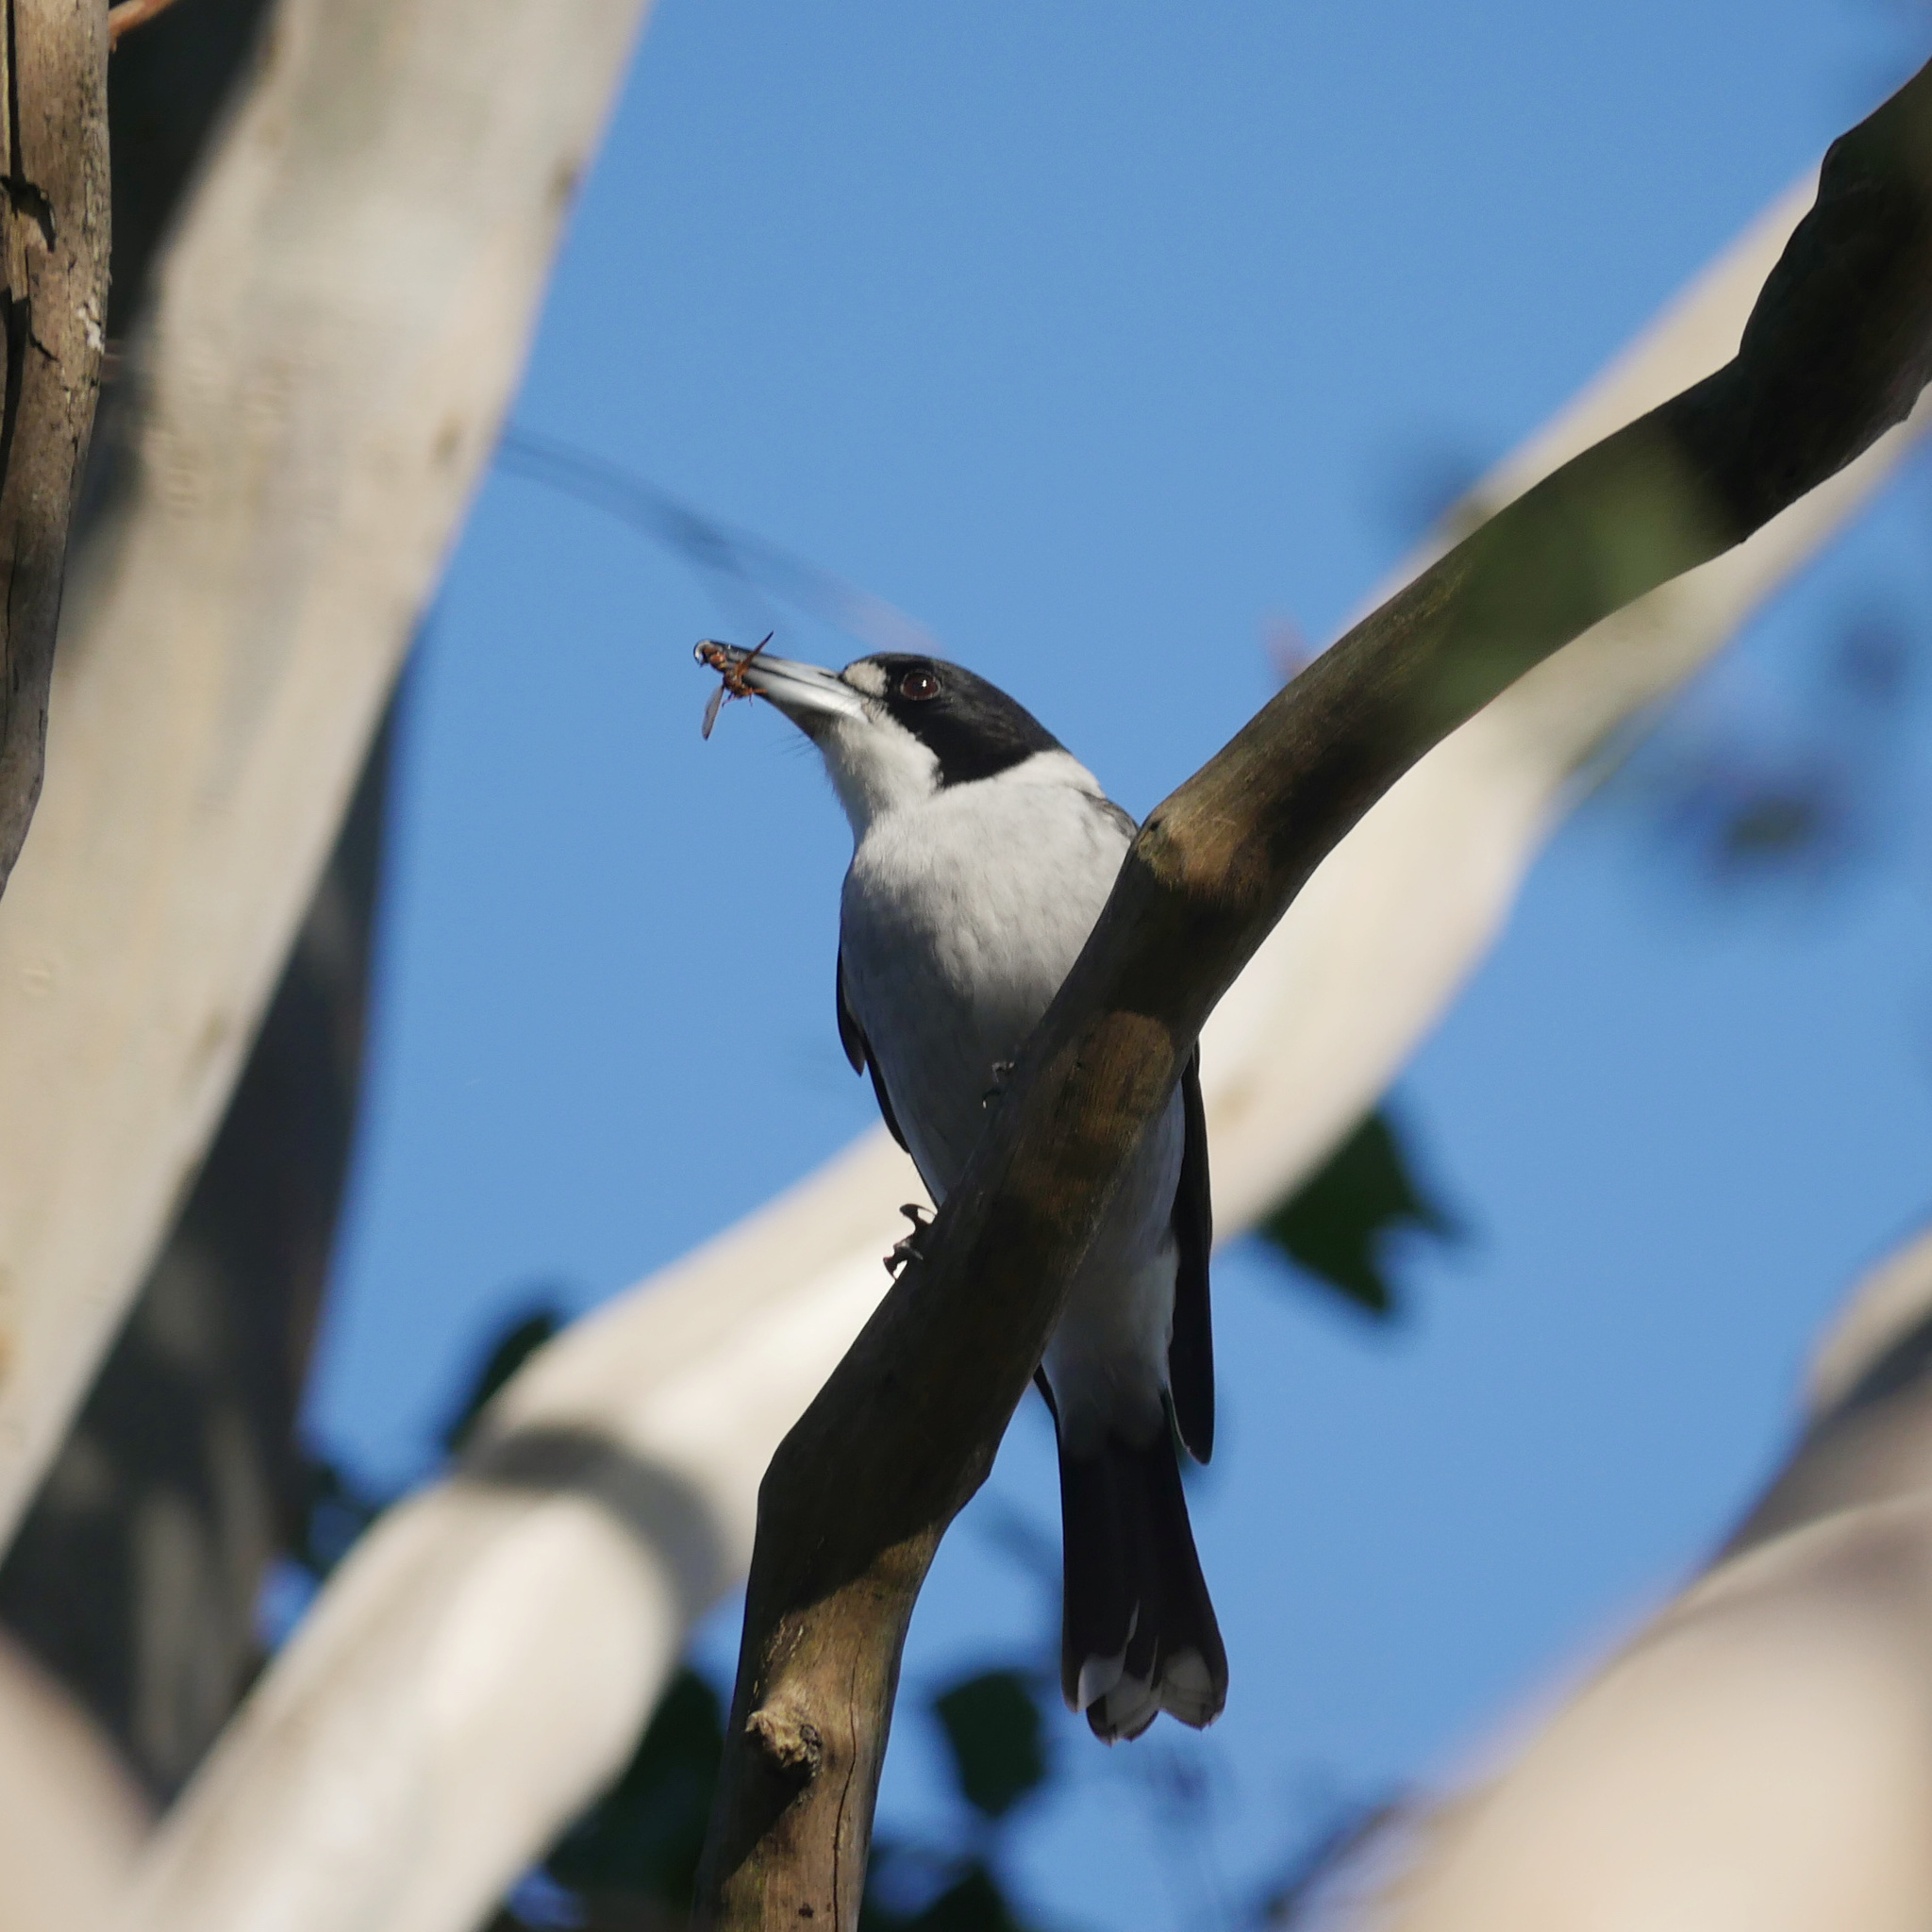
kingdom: Animalia
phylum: Chordata
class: Aves
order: Passeriformes
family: Cracticidae
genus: Cracticus
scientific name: Cracticus torquatus
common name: Grey butcherbird
